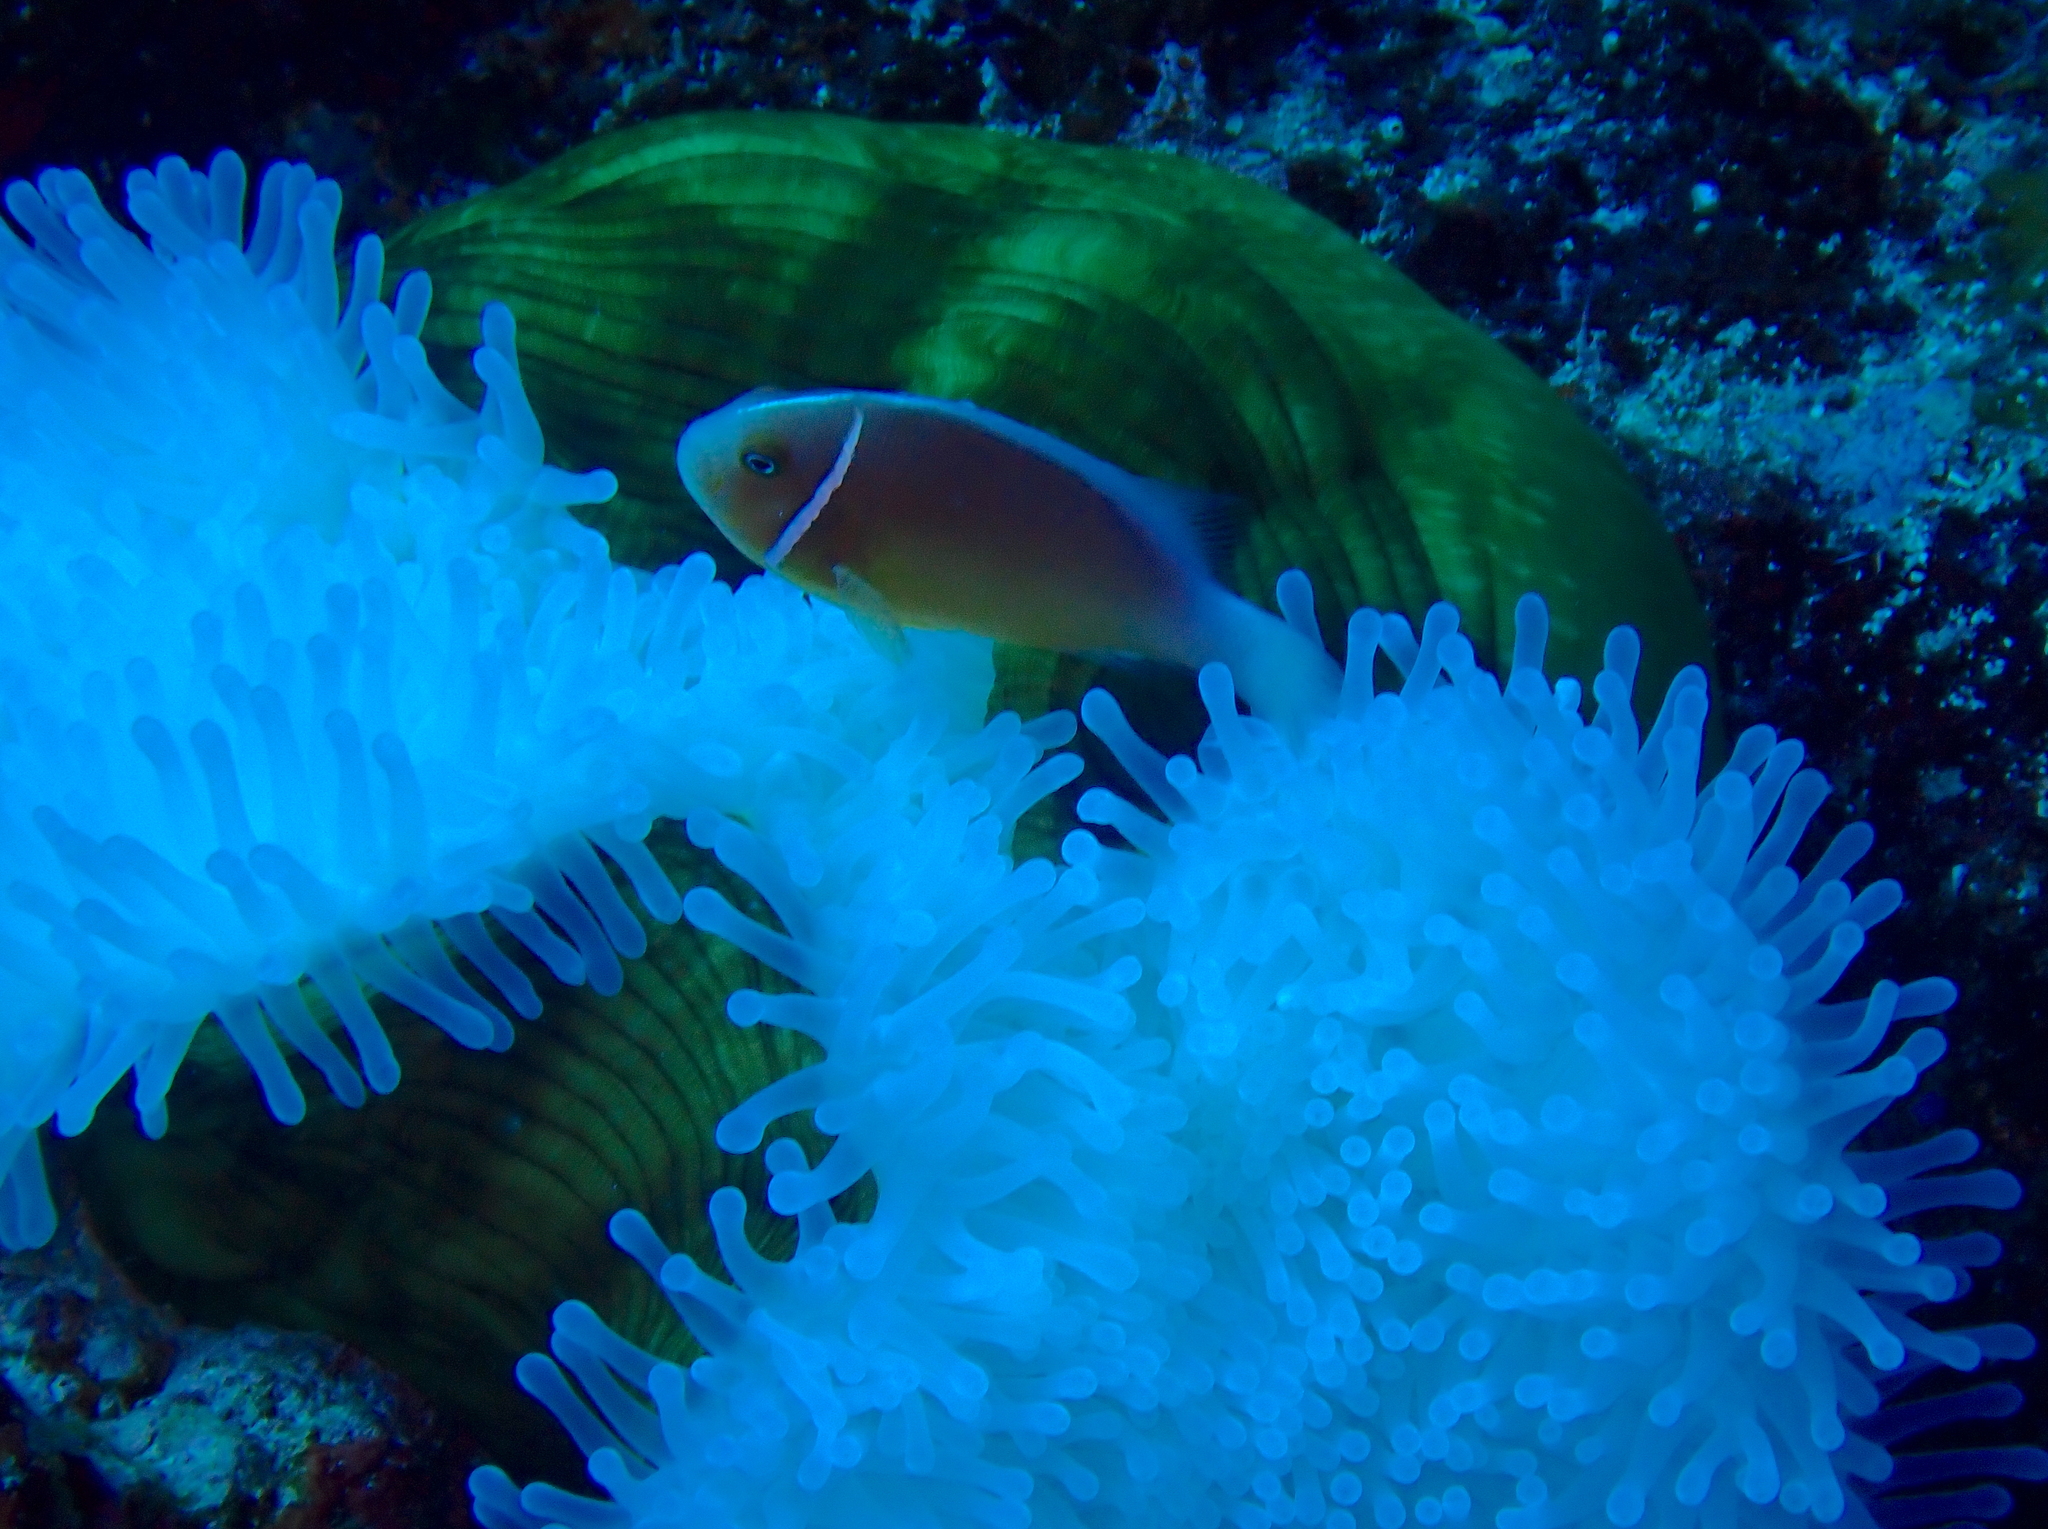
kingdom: Animalia
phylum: Chordata
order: Perciformes
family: Pomacentridae
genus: Amphiprion
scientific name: Amphiprion perideraion
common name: Pink anemonefish
